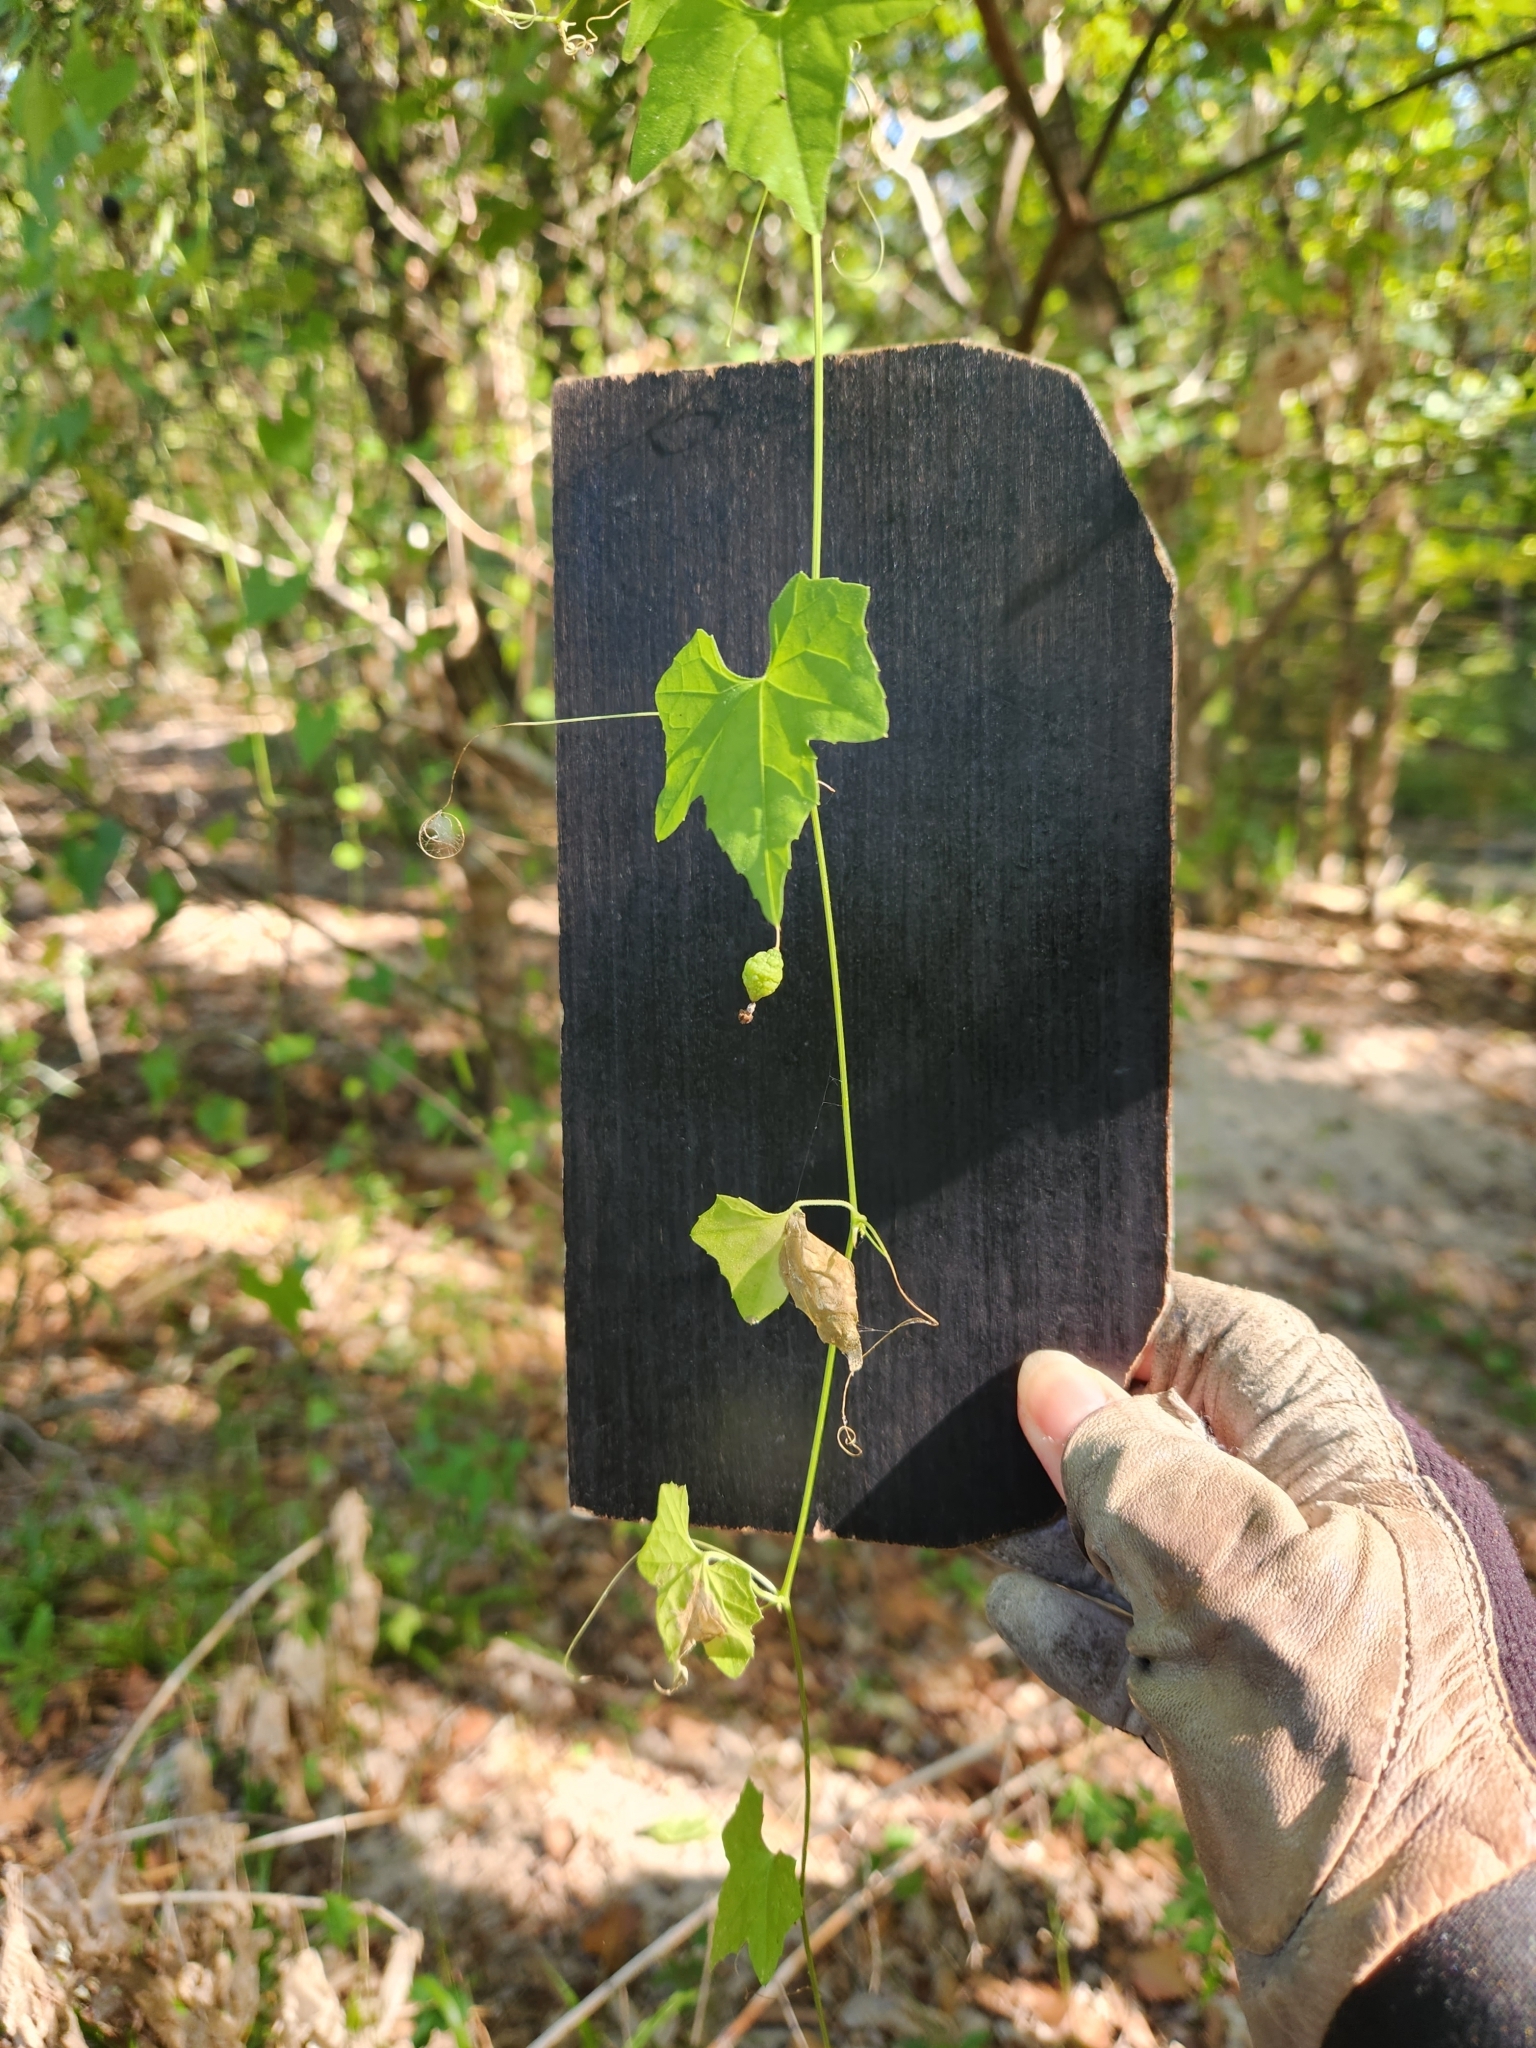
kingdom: Plantae
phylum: Tracheophyta
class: Magnoliopsida
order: Cucurbitales
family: Cucurbitaceae
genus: Melothria
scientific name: Melothria pendula
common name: Creeping-cucumber
